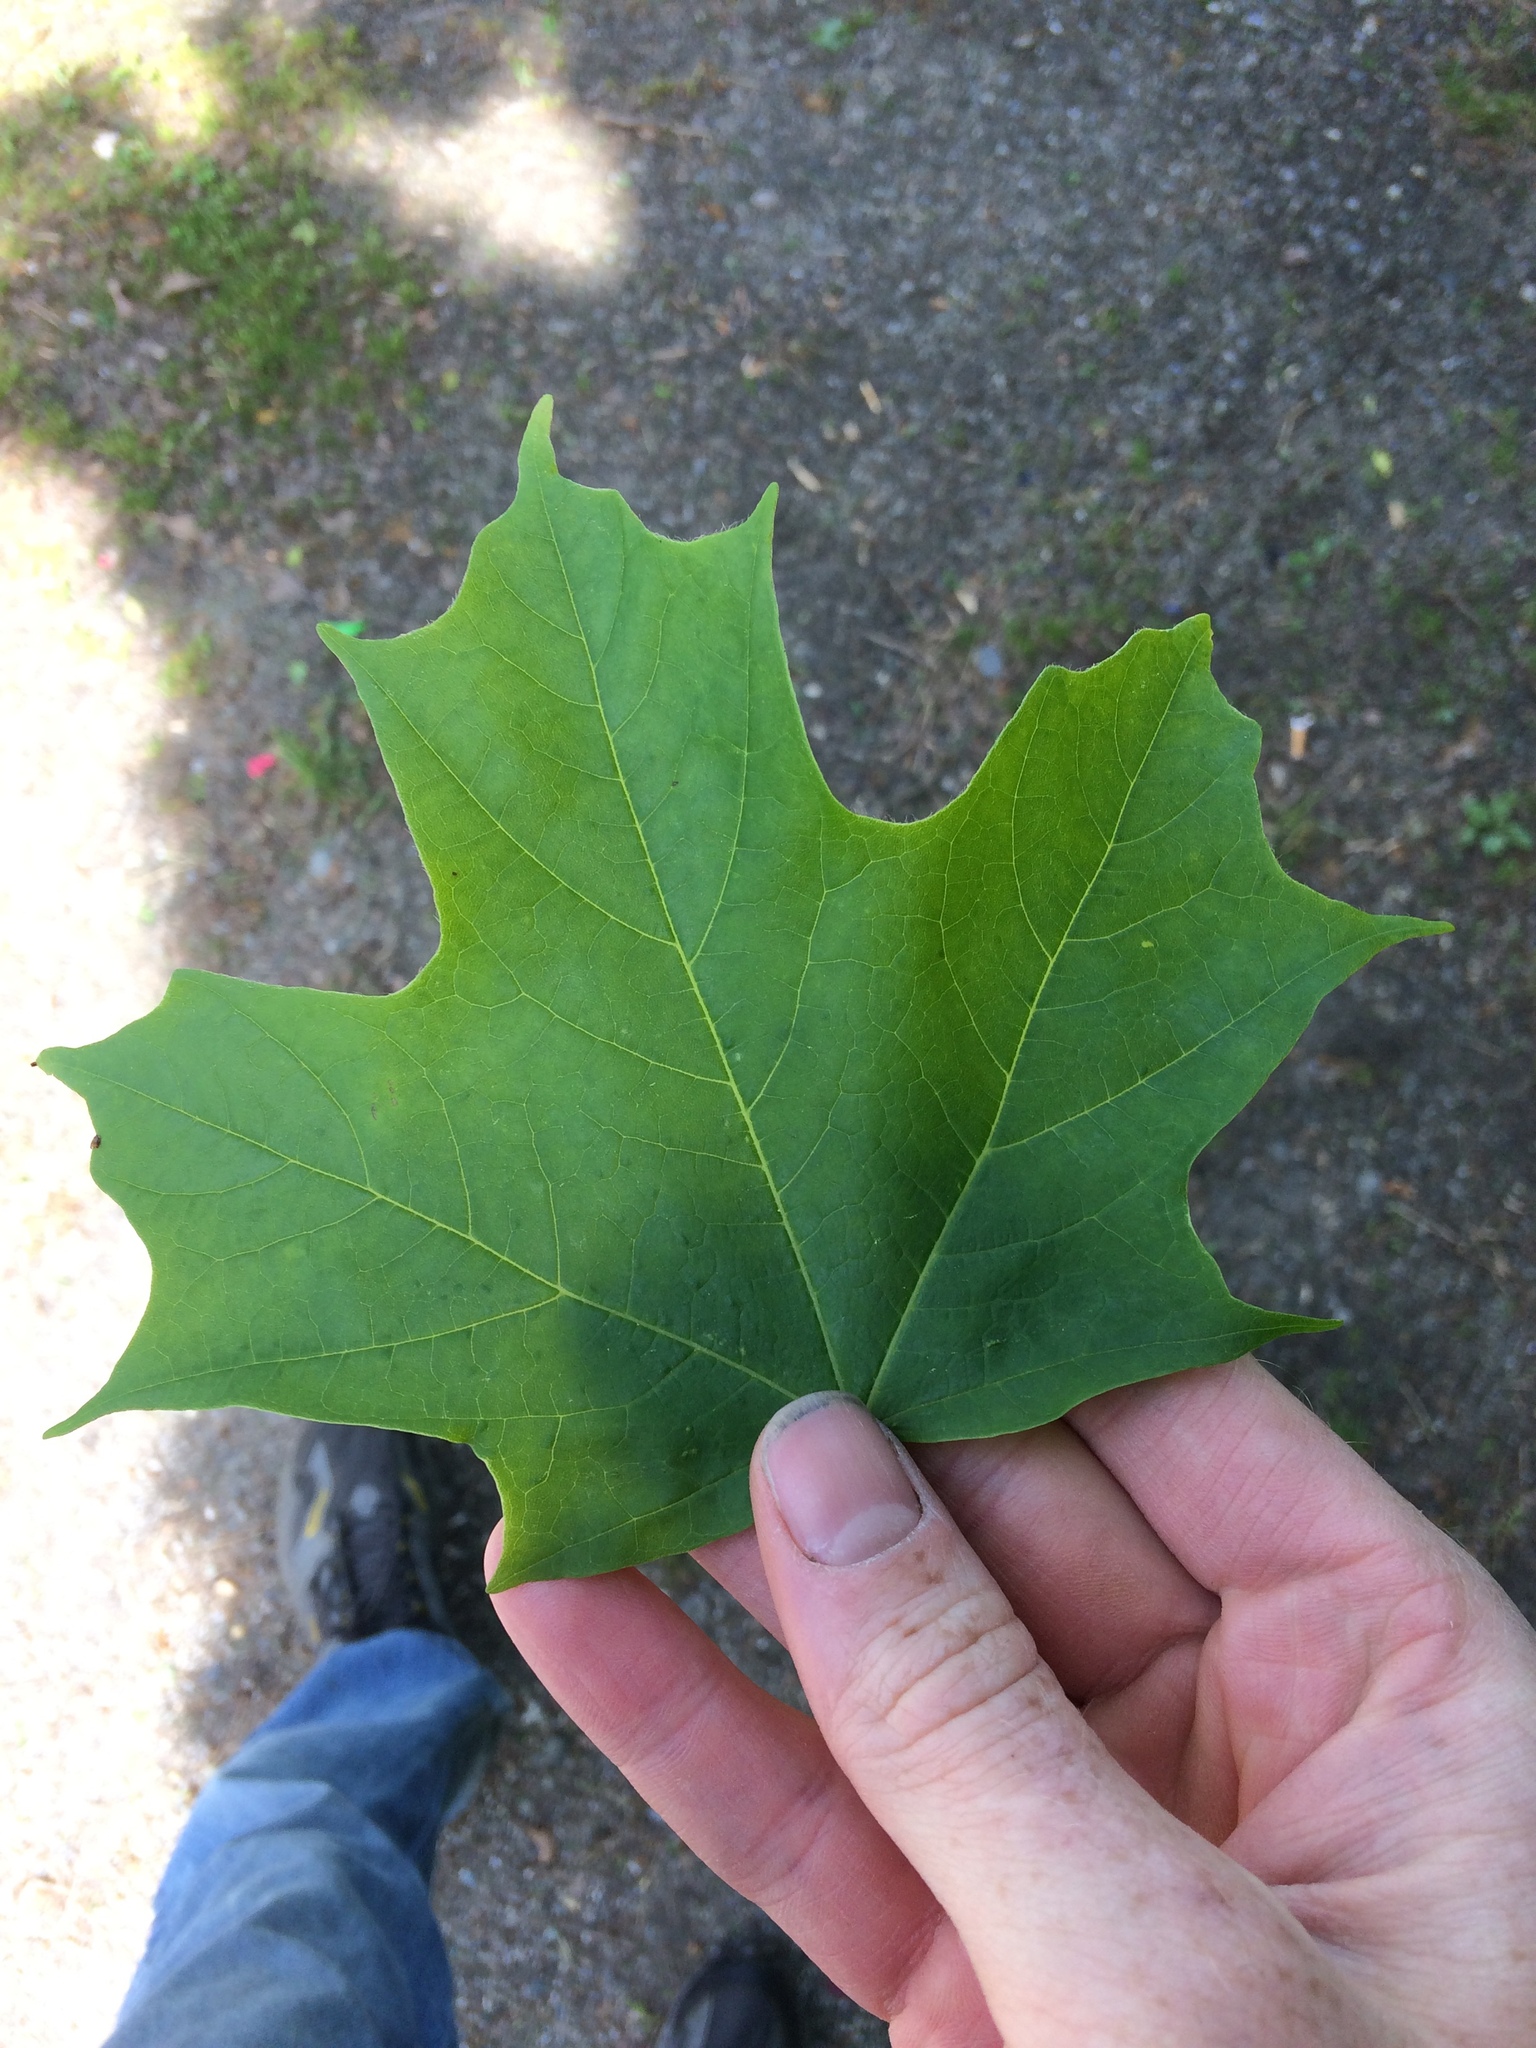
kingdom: Plantae
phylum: Tracheophyta
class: Magnoliopsida
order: Sapindales
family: Sapindaceae
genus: Acer
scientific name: Acer saccharum
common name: Sugar maple
